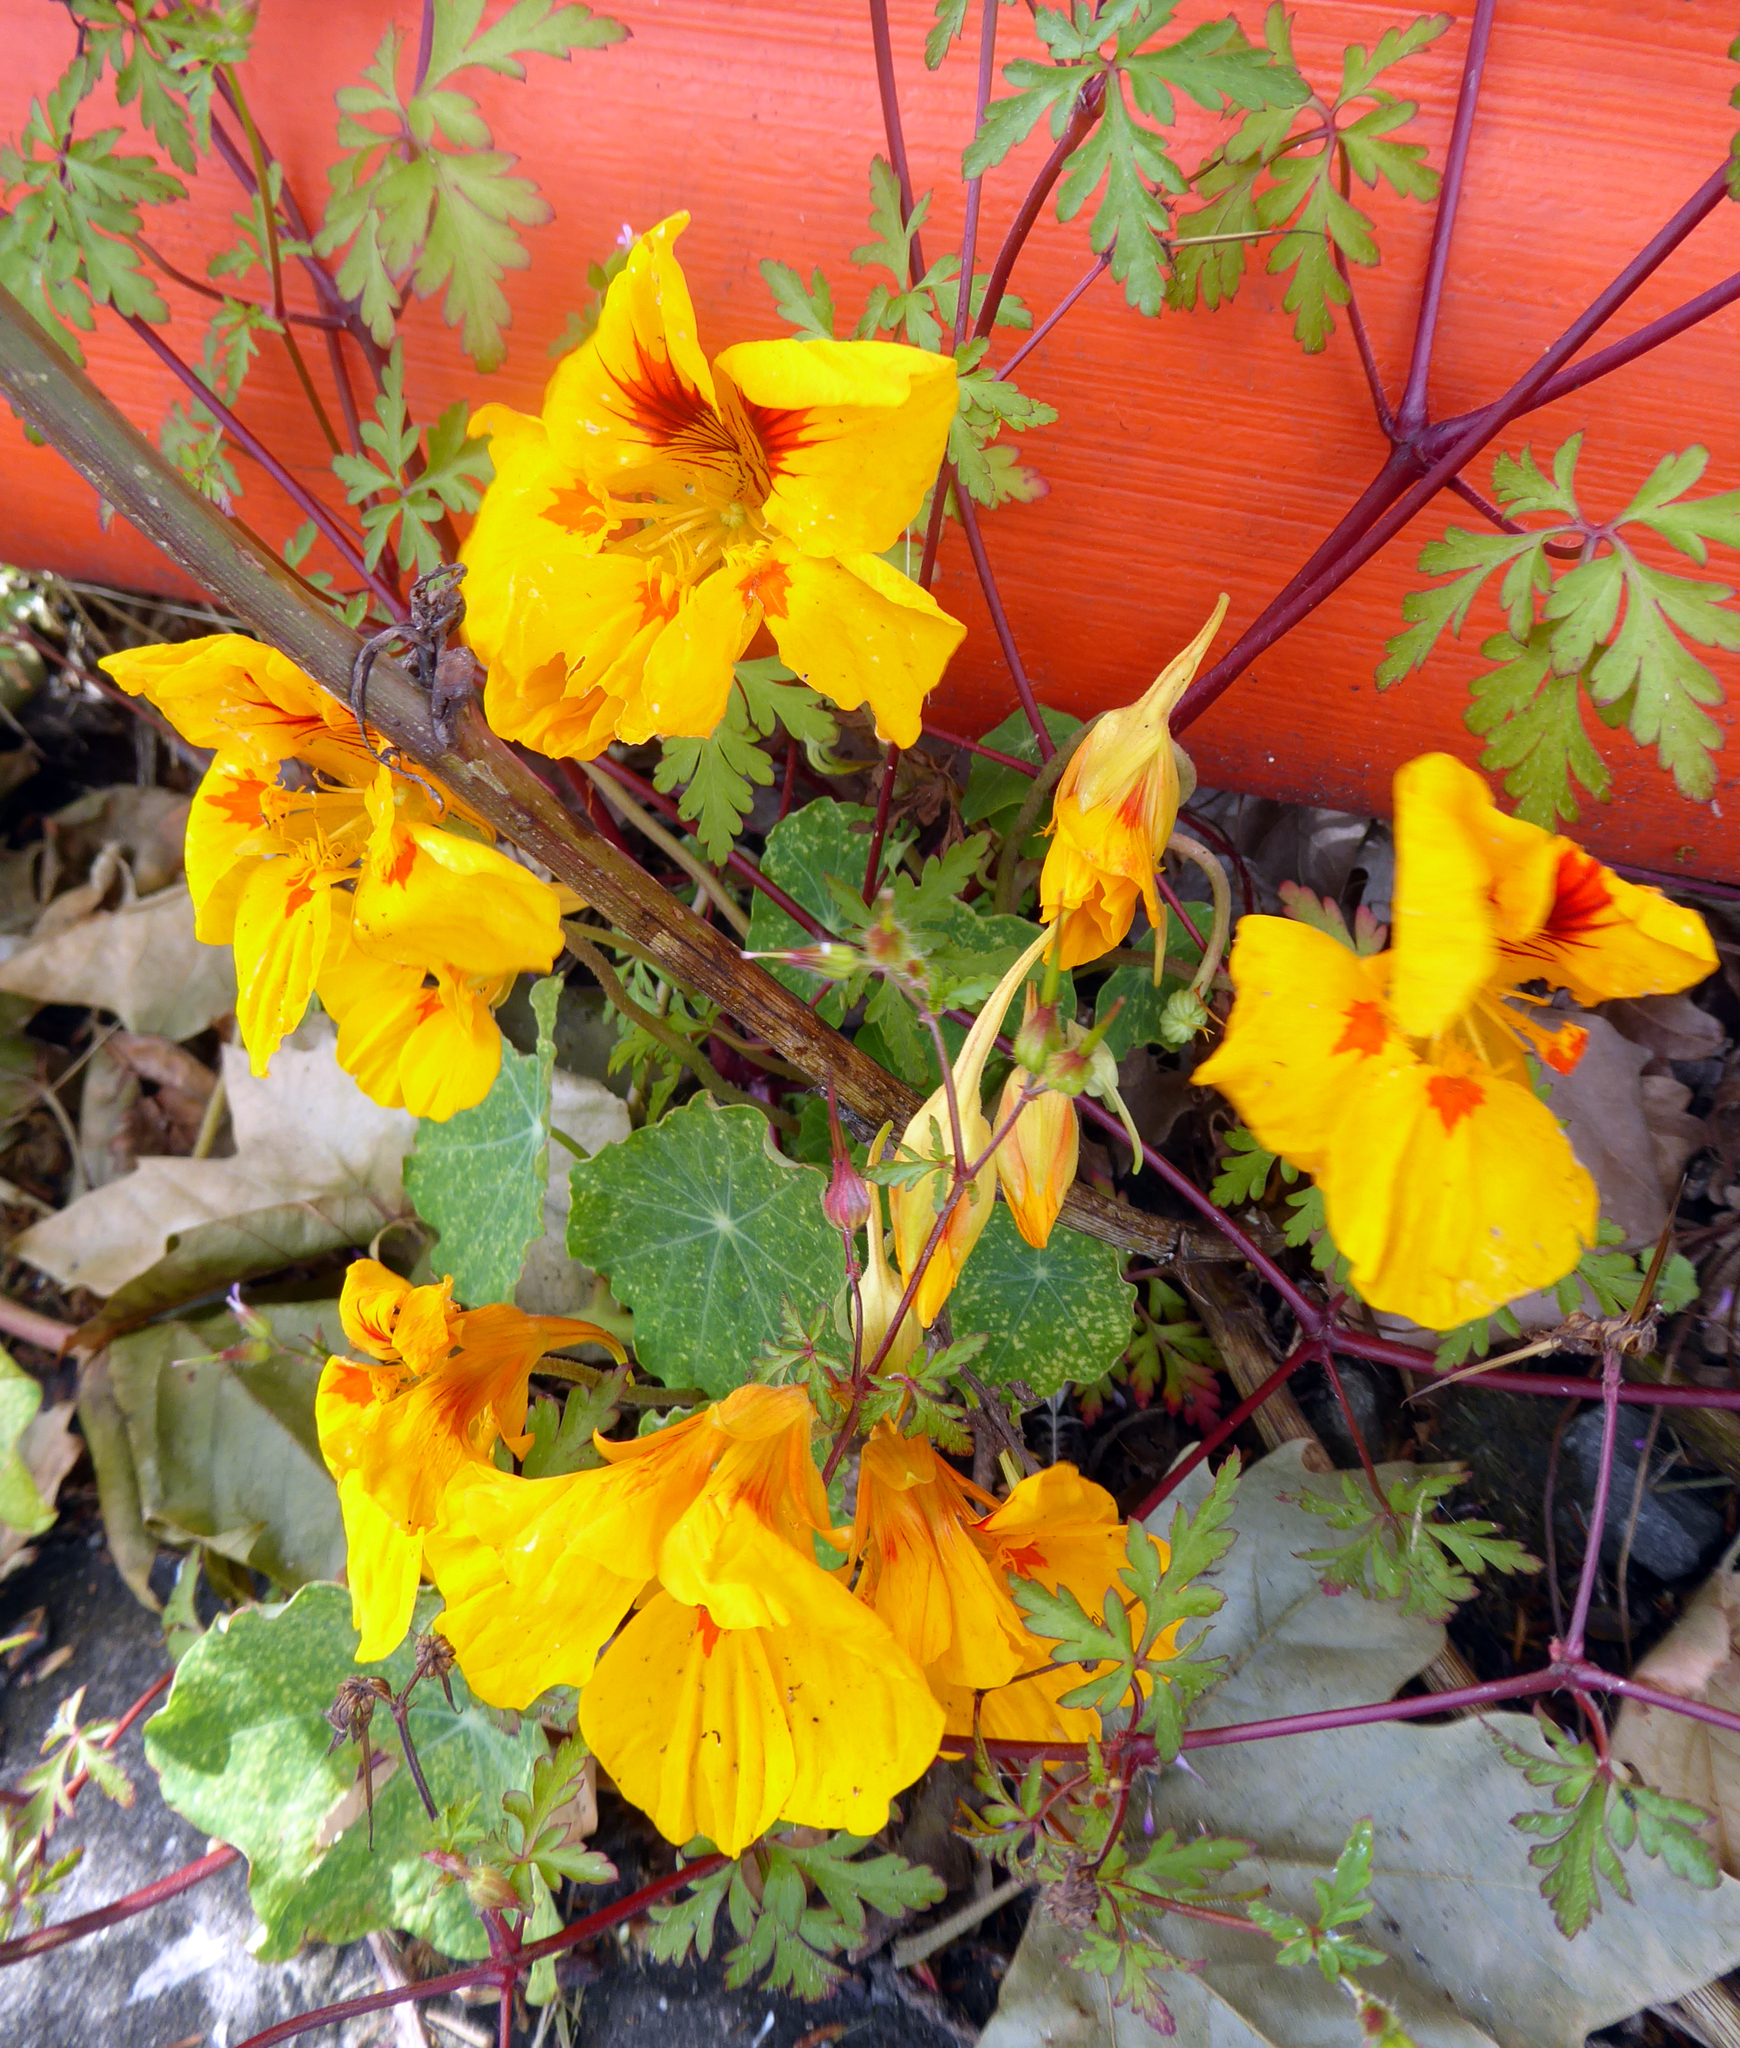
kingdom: Plantae
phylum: Tracheophyta
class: Magnoliopsida
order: Brassicales
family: Tropaeolaceae
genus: Tropaeolum
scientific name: Tropaeolum majus
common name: Nasturtium
